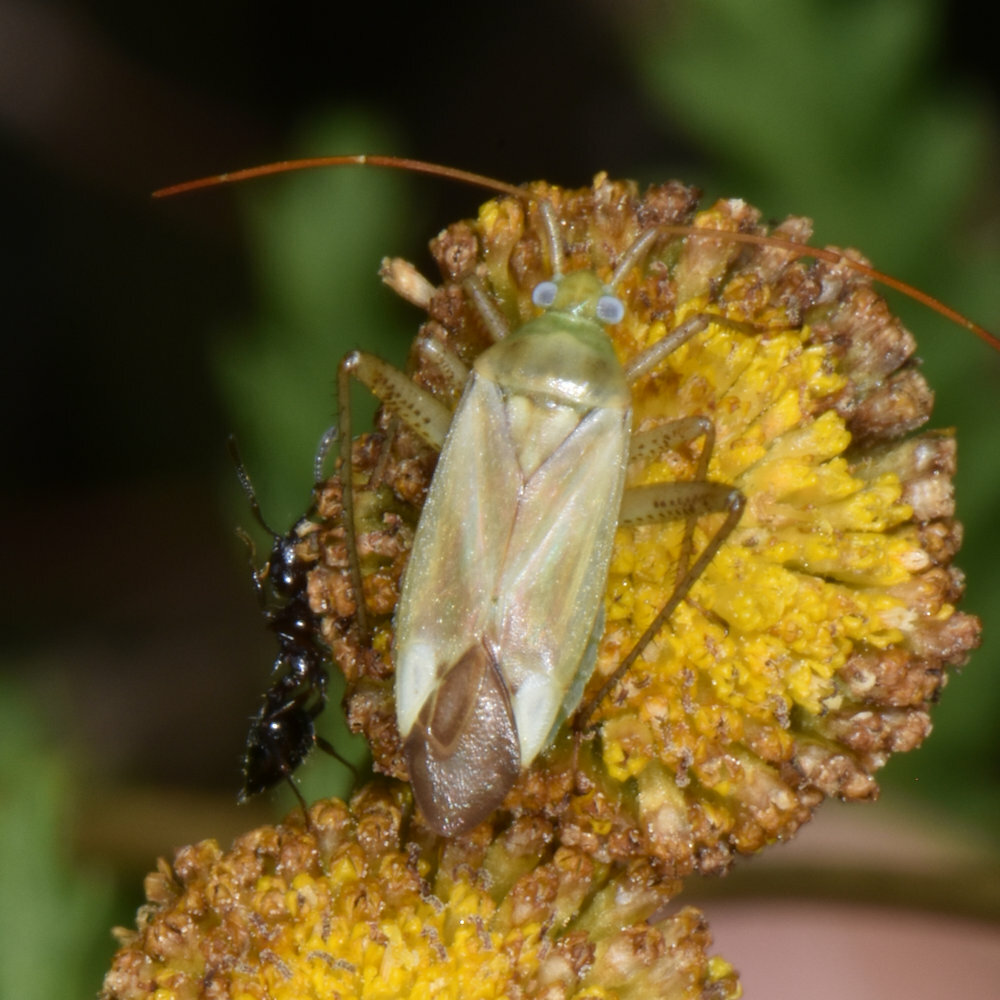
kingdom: Animalia
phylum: Arthropoda
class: Insecta
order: Hemiptera
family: Miridae
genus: Adelphocoris
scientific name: Adelphocoris lineolatus
